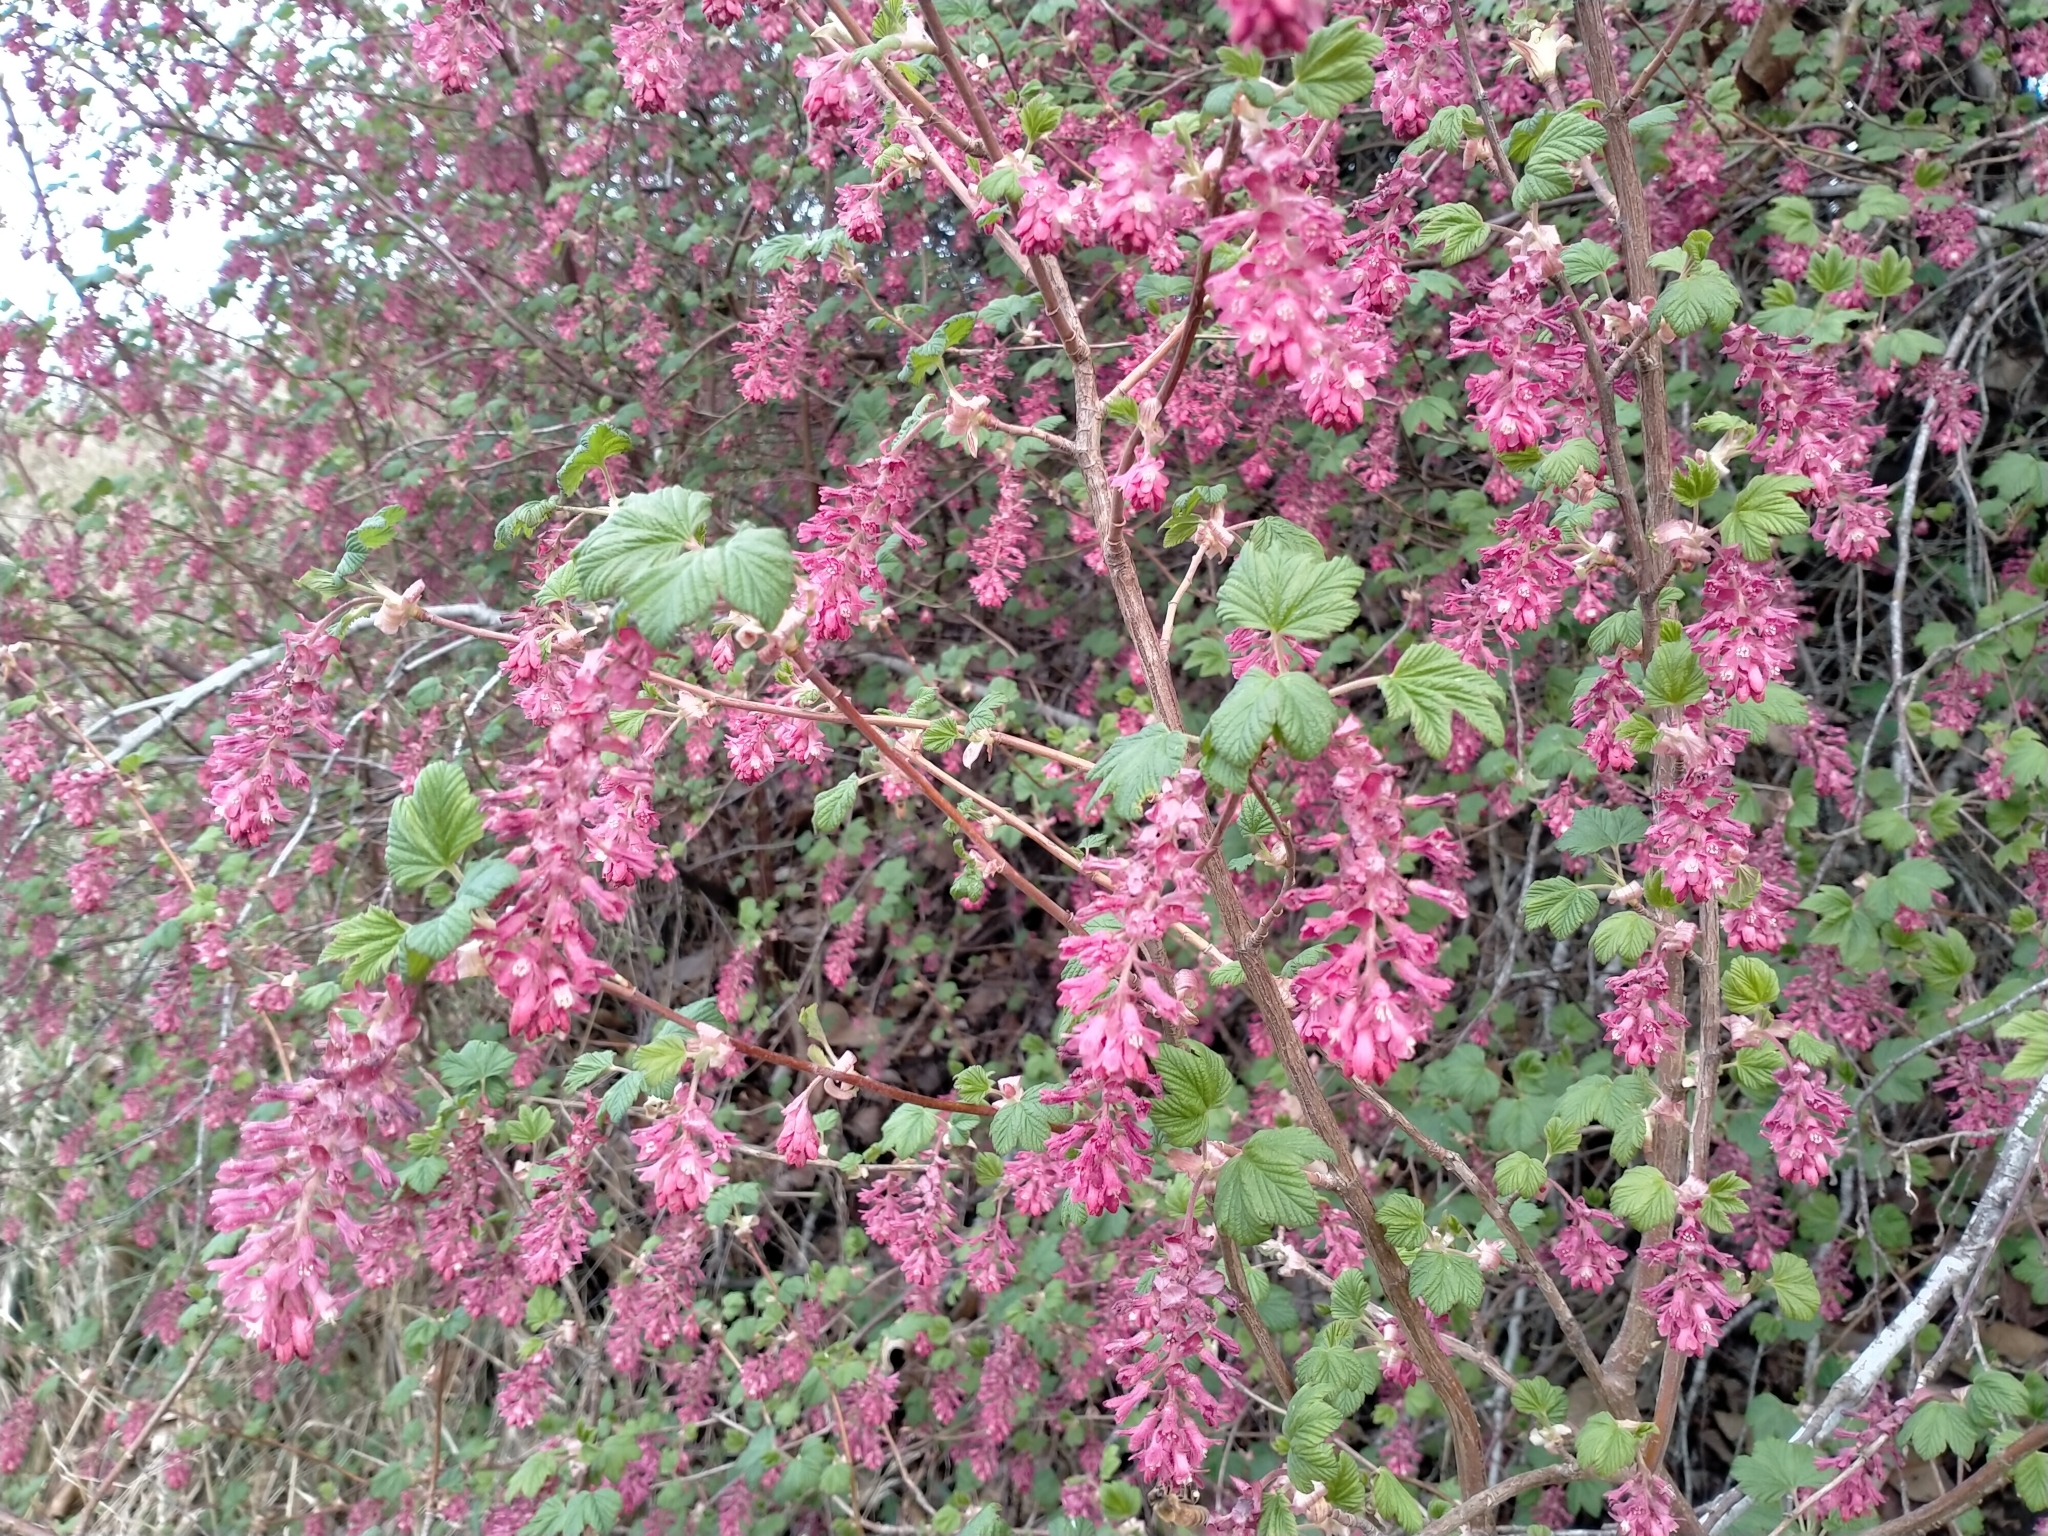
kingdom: Plantae
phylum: Tracheophyta
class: Magnoliopsida
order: Saxifragales
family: Grossulariaceae
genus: Ribes
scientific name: Ribes sanguineum
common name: Flowering currant
